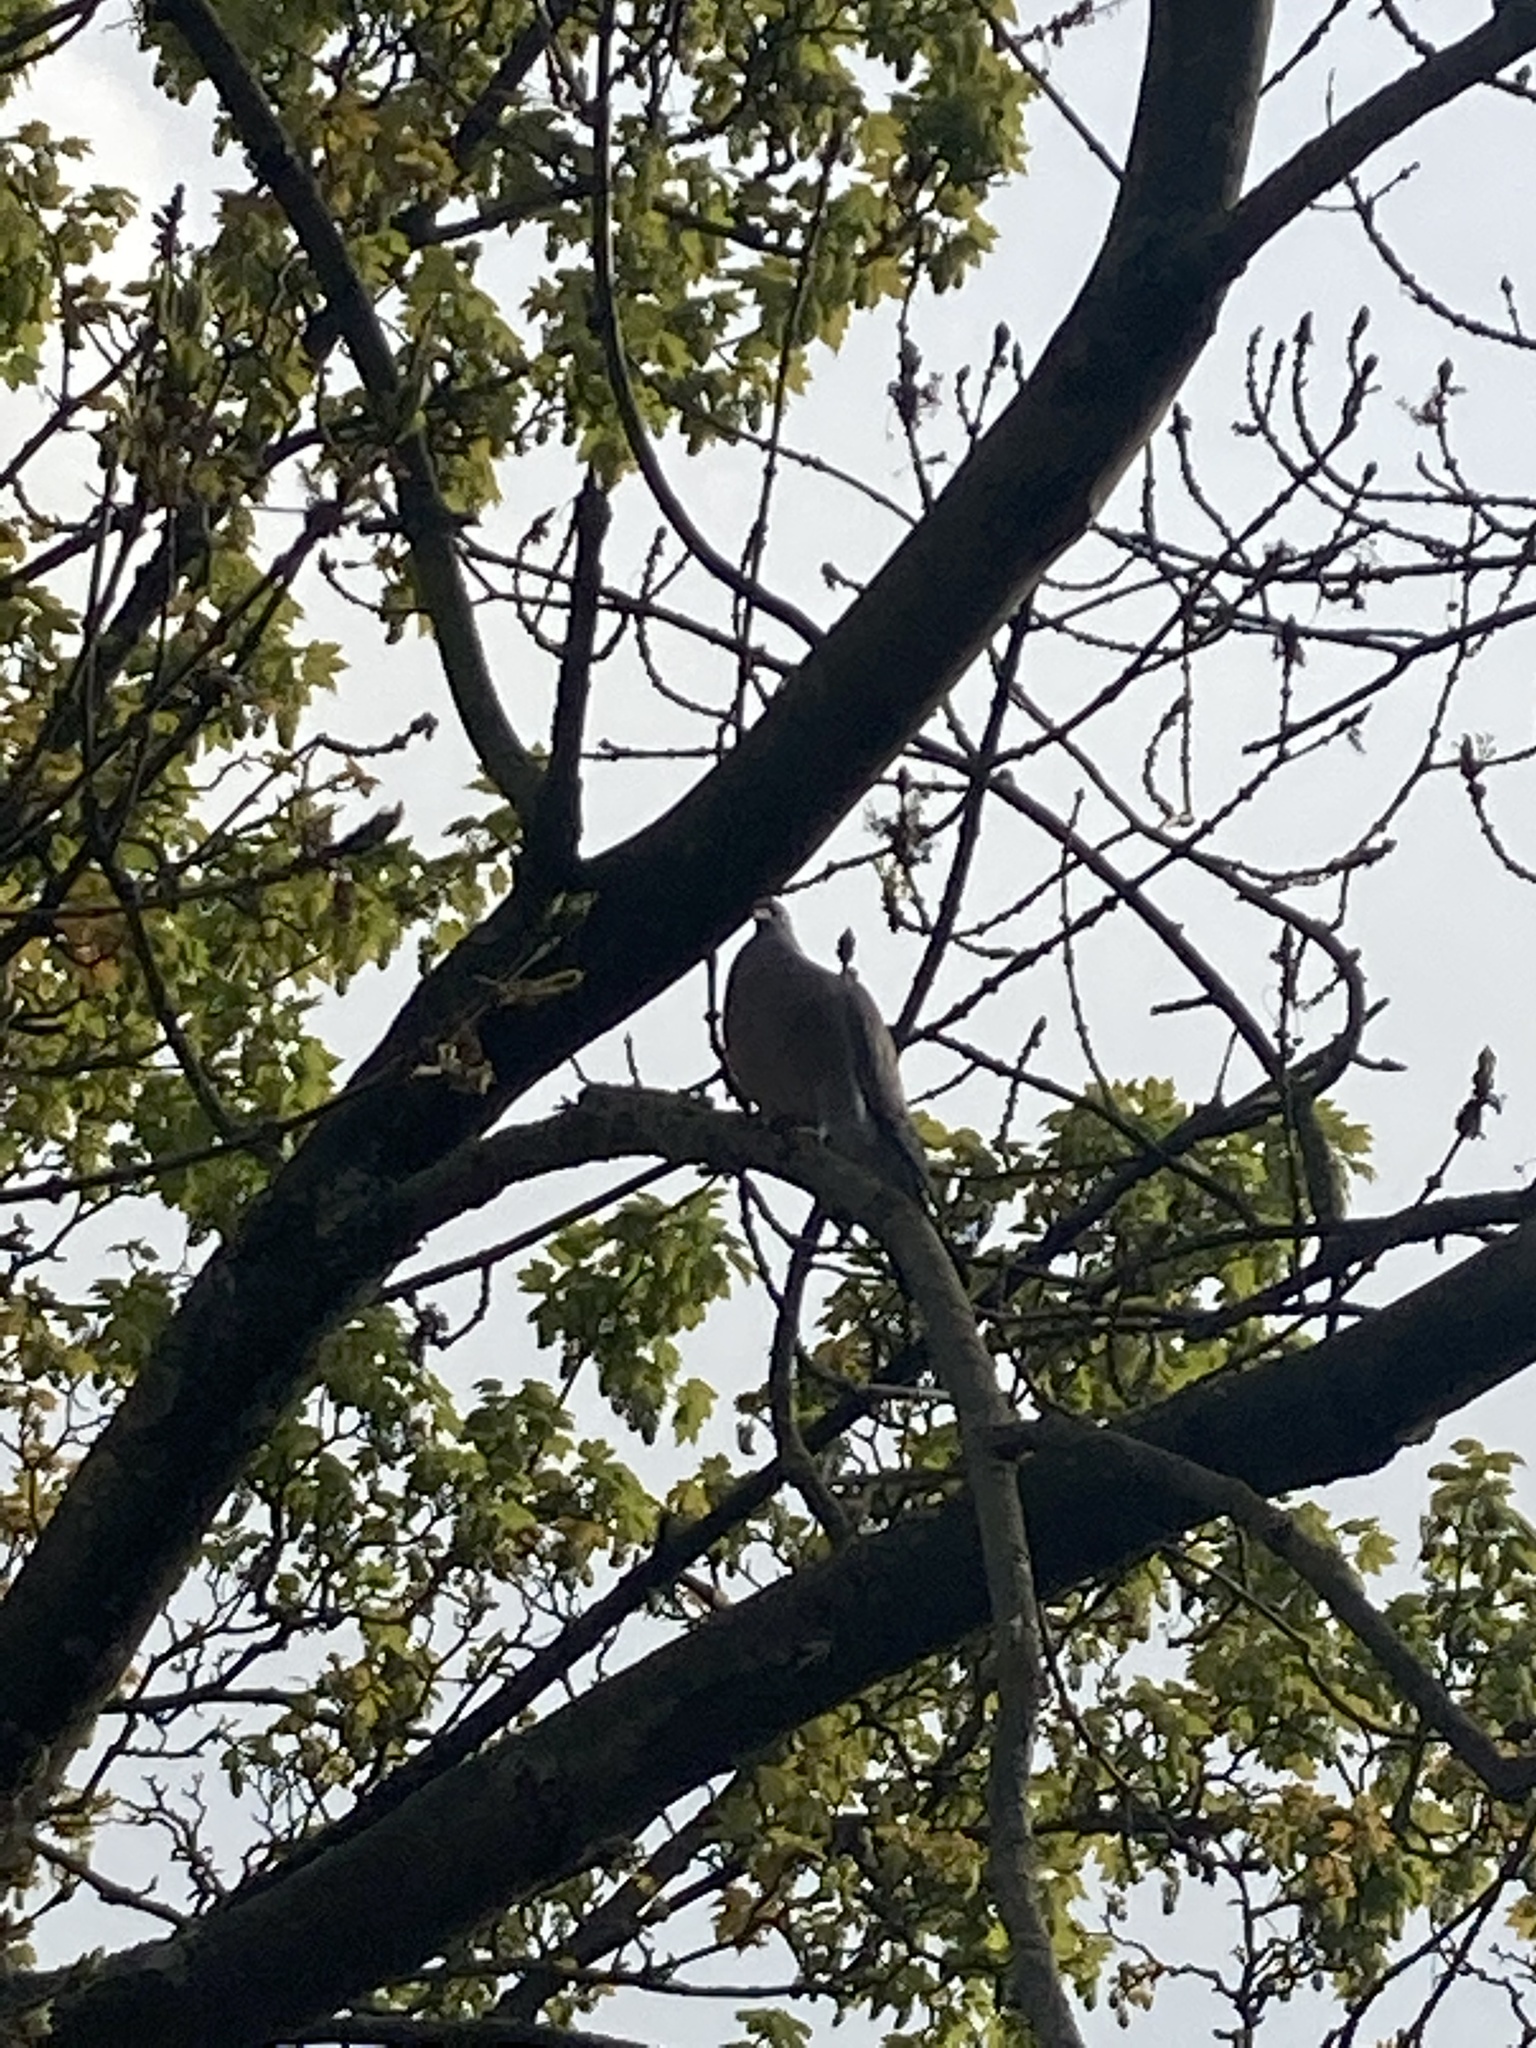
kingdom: Animalia
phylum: Chordata
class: Aves
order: Columbiformes
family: Columbidae
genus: Columba
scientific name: Columba palumbus
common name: Common wood pigeon
